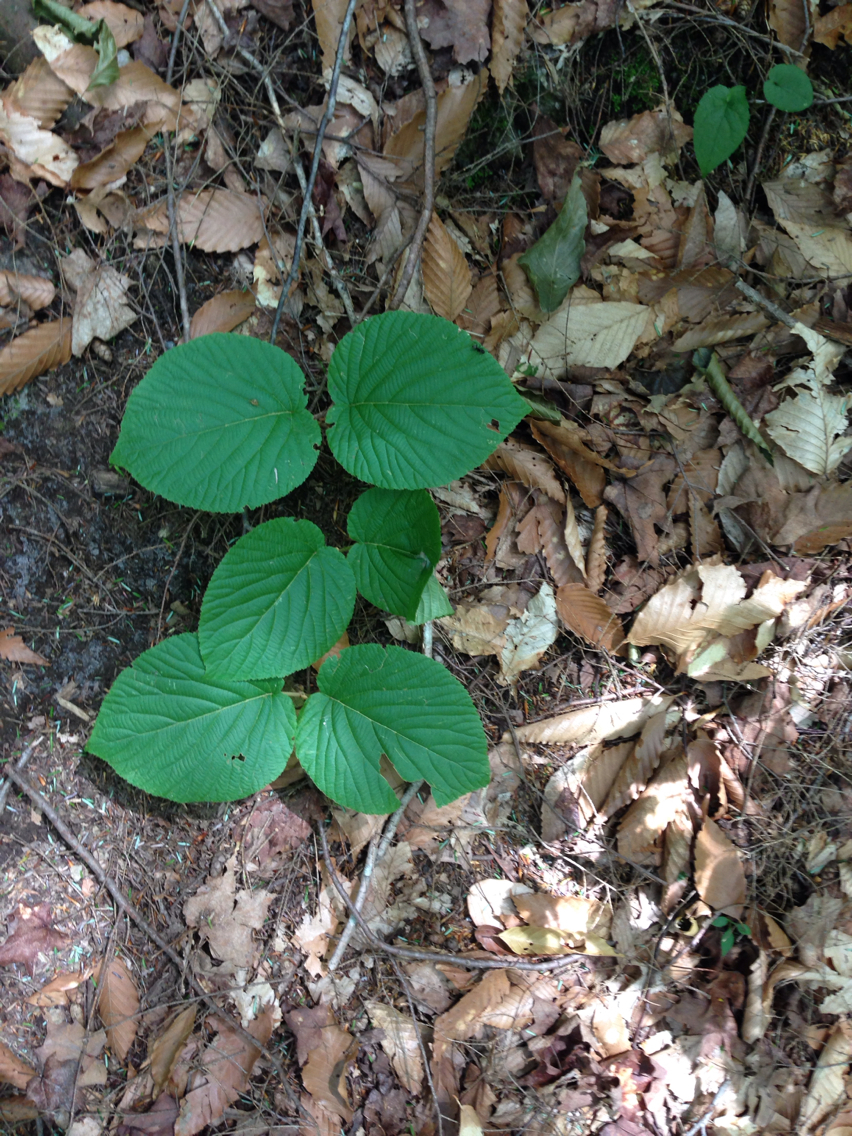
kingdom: Plantae
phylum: Tracheophyta
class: Magnoliopsida
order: Dipsacales
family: Viburnaceae
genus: Viburnum
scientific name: Viburnum lantanoides
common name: Hobblebush
